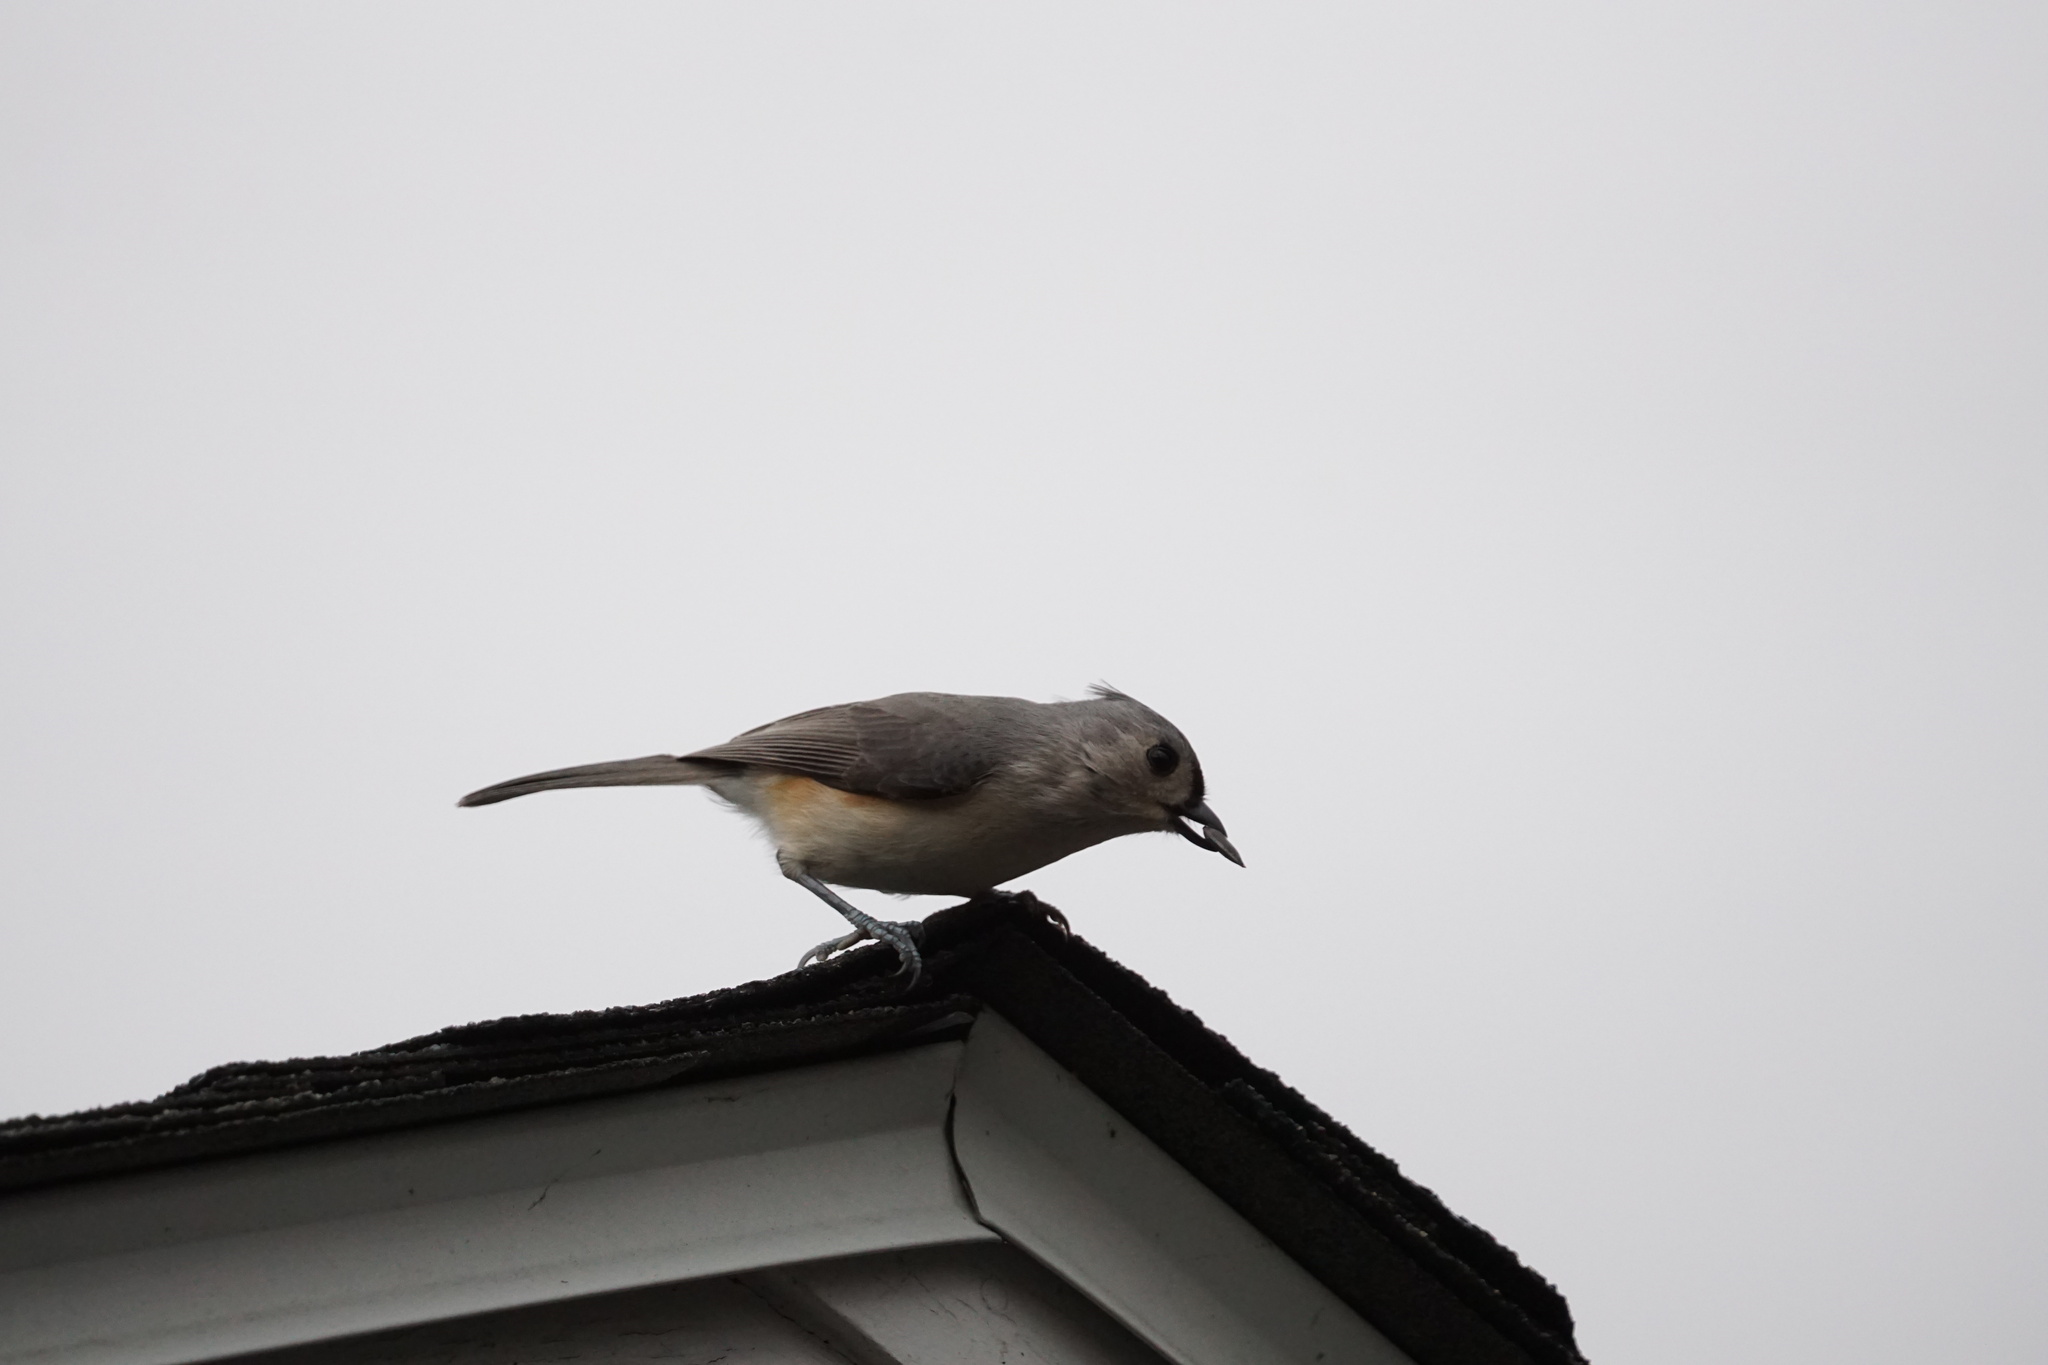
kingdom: Animalia
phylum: Chordata
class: Aves
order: Passeriformes
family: Paridae
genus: Baeolophus
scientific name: Baeolophus bicolor
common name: Tufted titmouse
